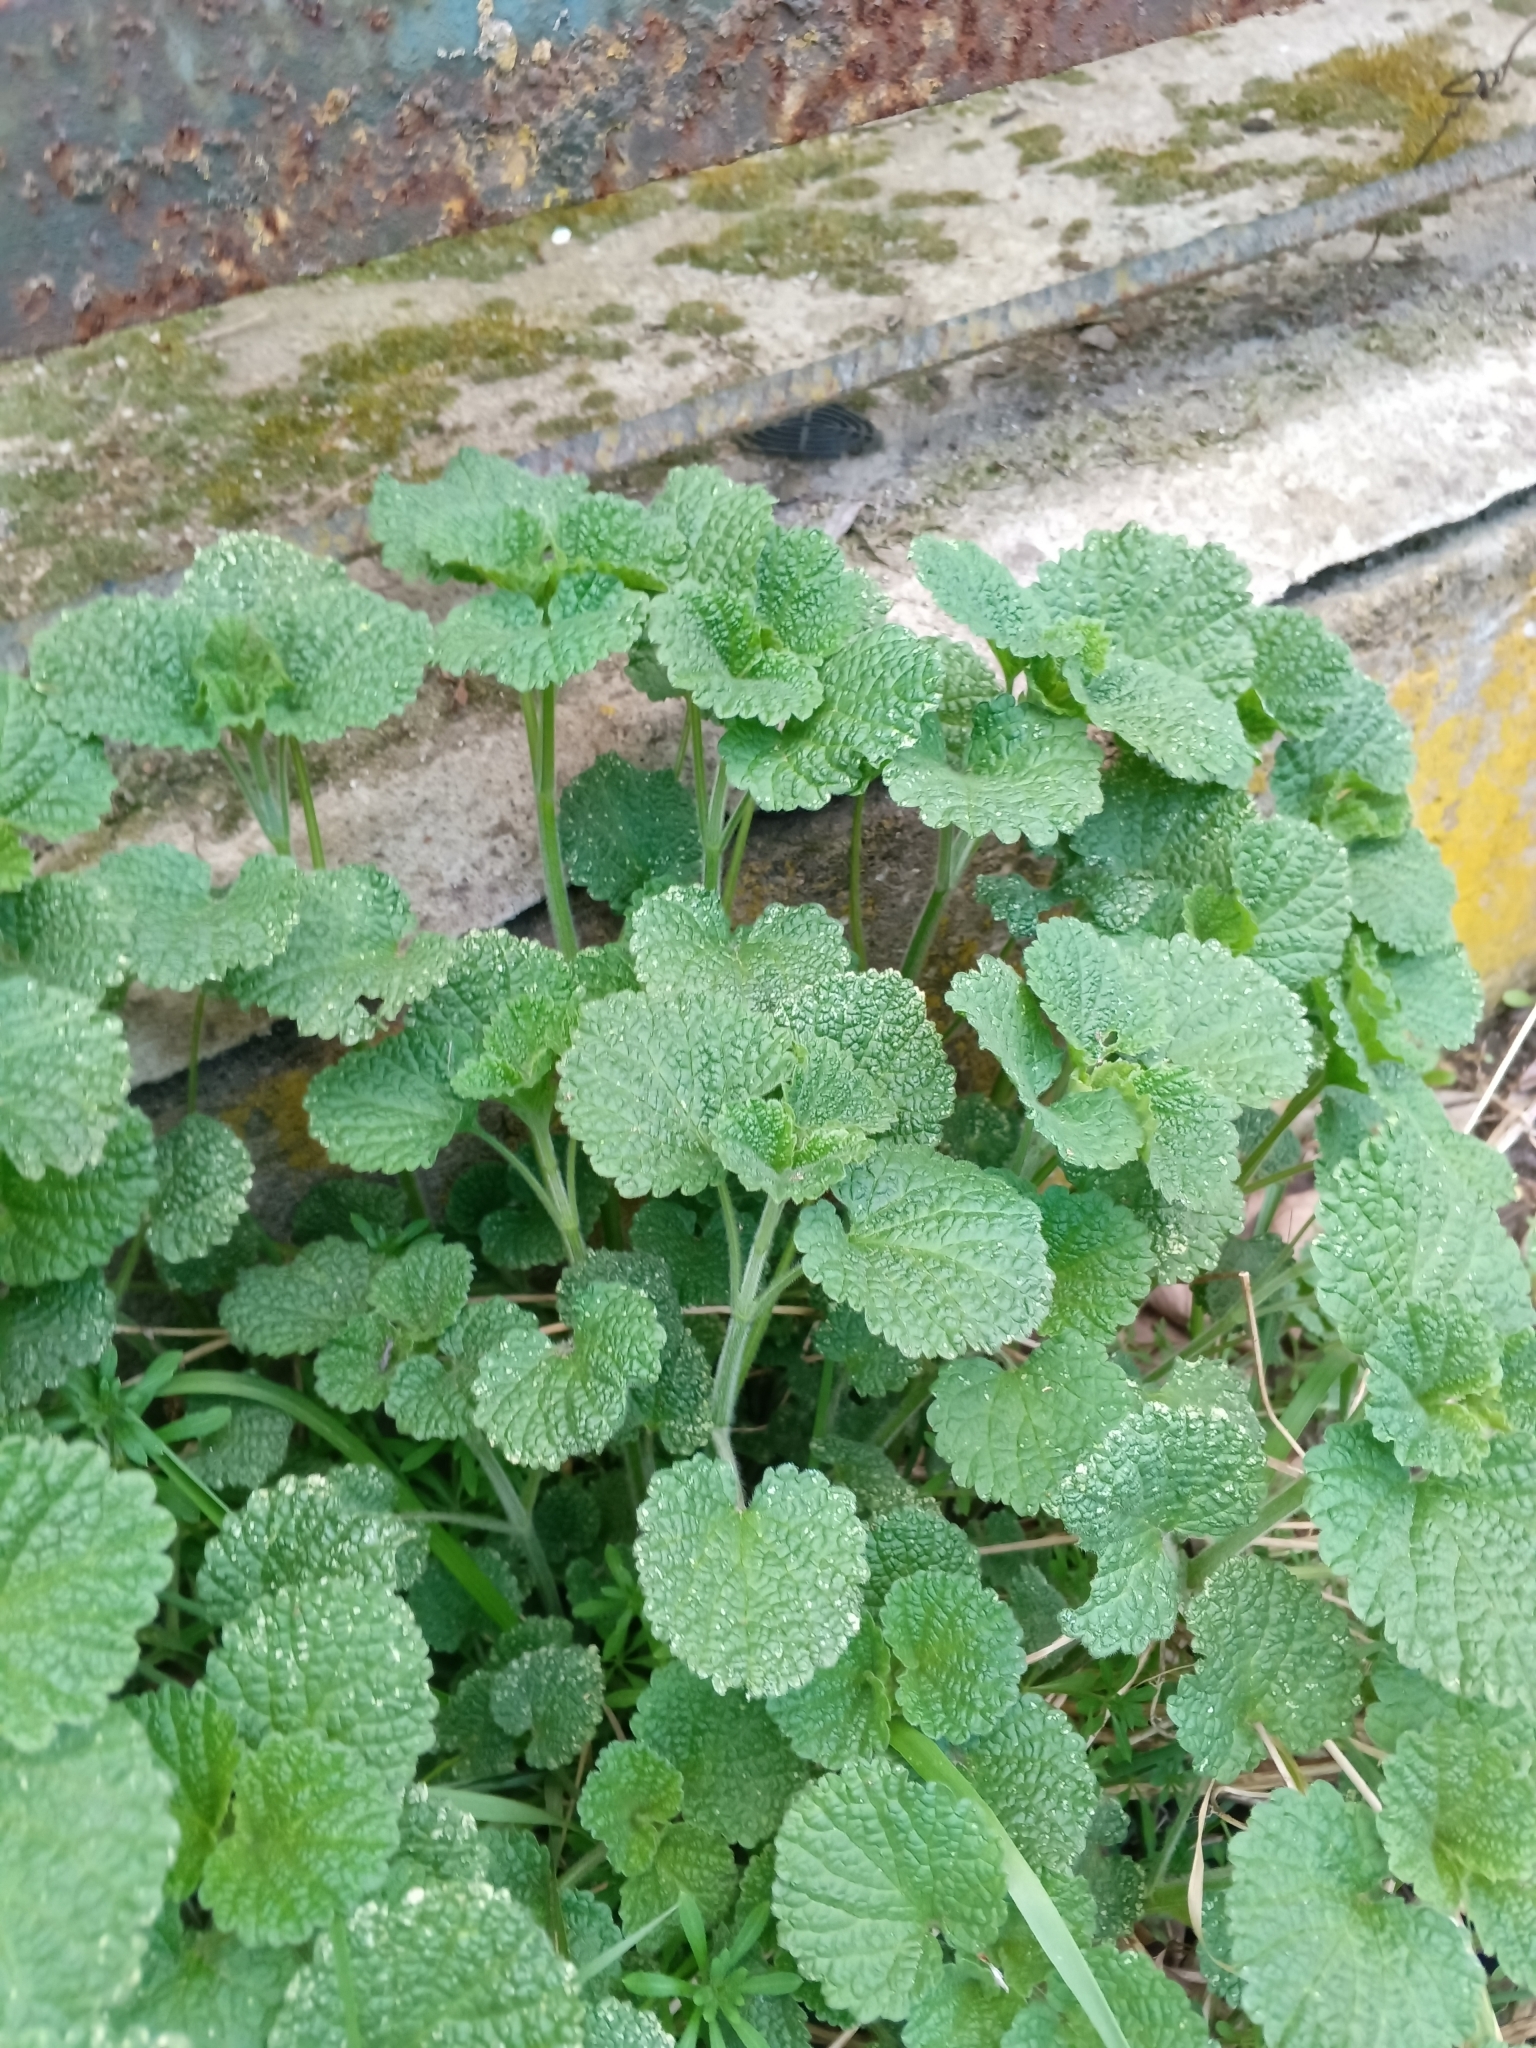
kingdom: Plantae
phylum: Tracheophyta
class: Magnoliopsida
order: Lamiales
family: Lamiaceae
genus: Ballota
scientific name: Ballota nigra
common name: Black horehound
